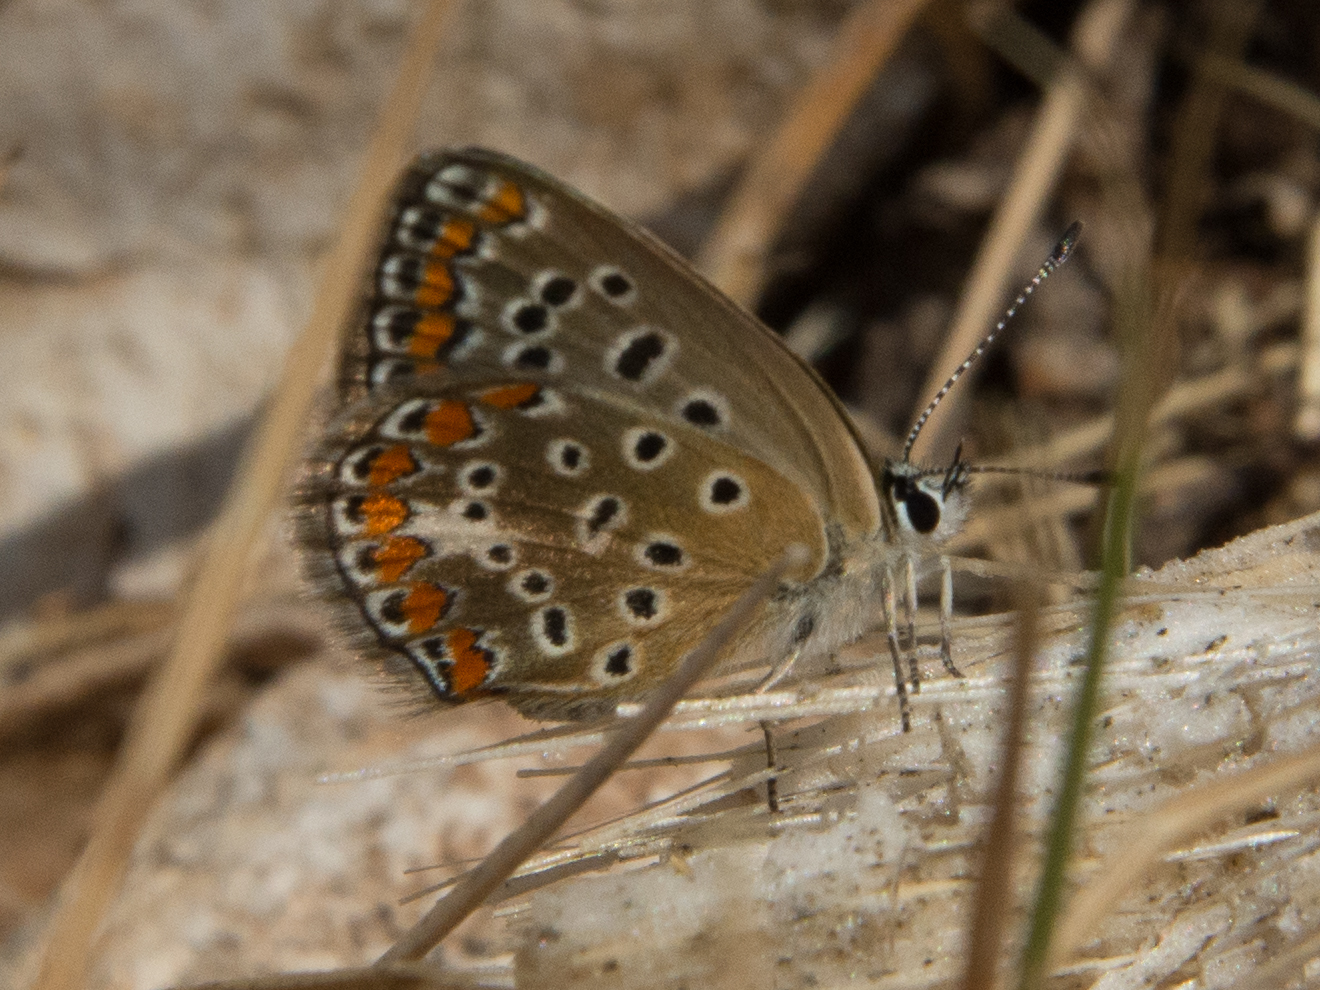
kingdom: Animalia
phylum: Arthropoda
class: Insecta
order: Lepidoptera
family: Lycaenidae
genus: Polyommatus
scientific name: Polyommatus celina
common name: Austaut's blue
